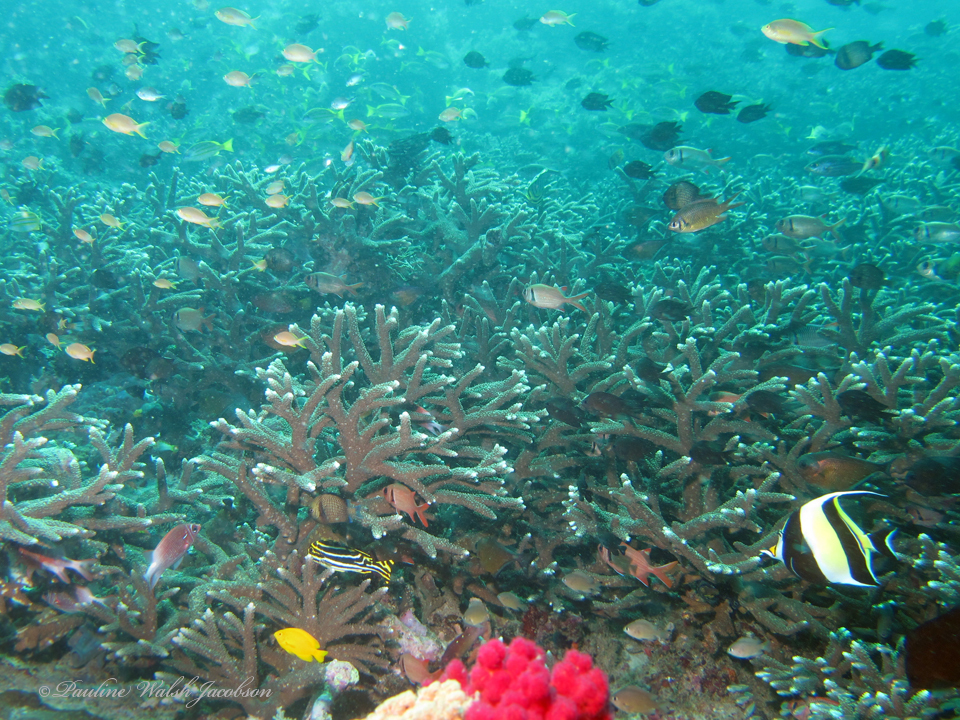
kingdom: Animalia
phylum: Chordata
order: Perciformes
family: Haemulidae
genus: Plectorhinchus
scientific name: Plectorhinchus vittatus
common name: Oriental sweetlips
